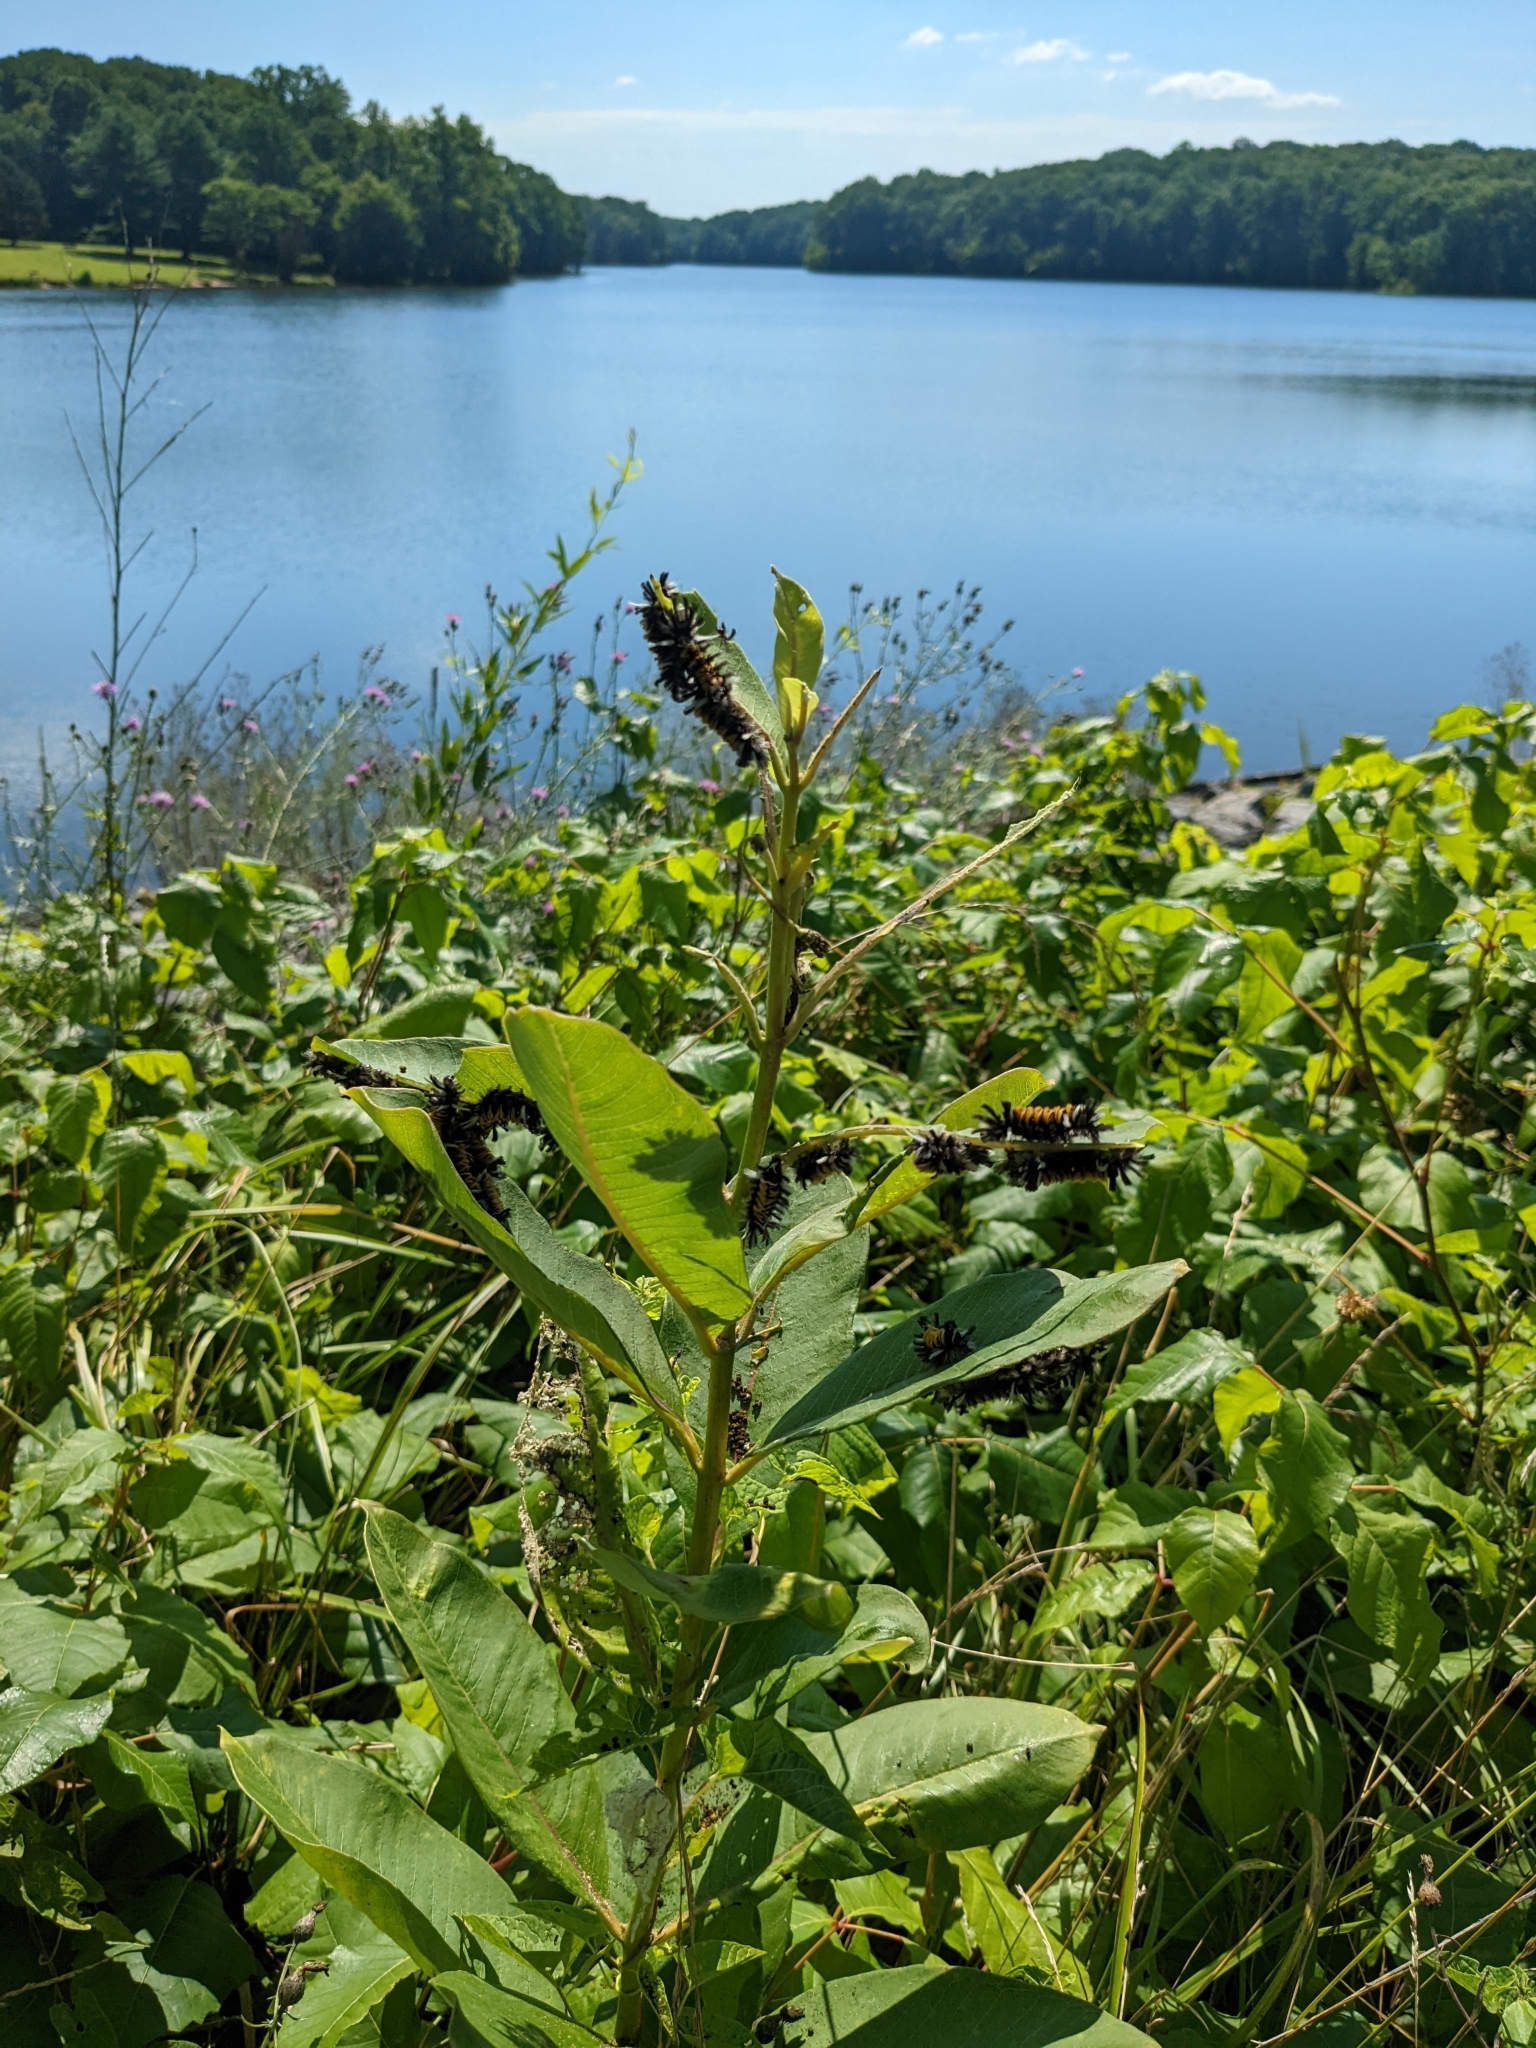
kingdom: Animalia
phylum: Arthropoda
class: Insecta
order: Lepidoptera
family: Erebidae
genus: Euchaetes
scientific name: Euchaetes egle
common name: Milkweed tussock moth
